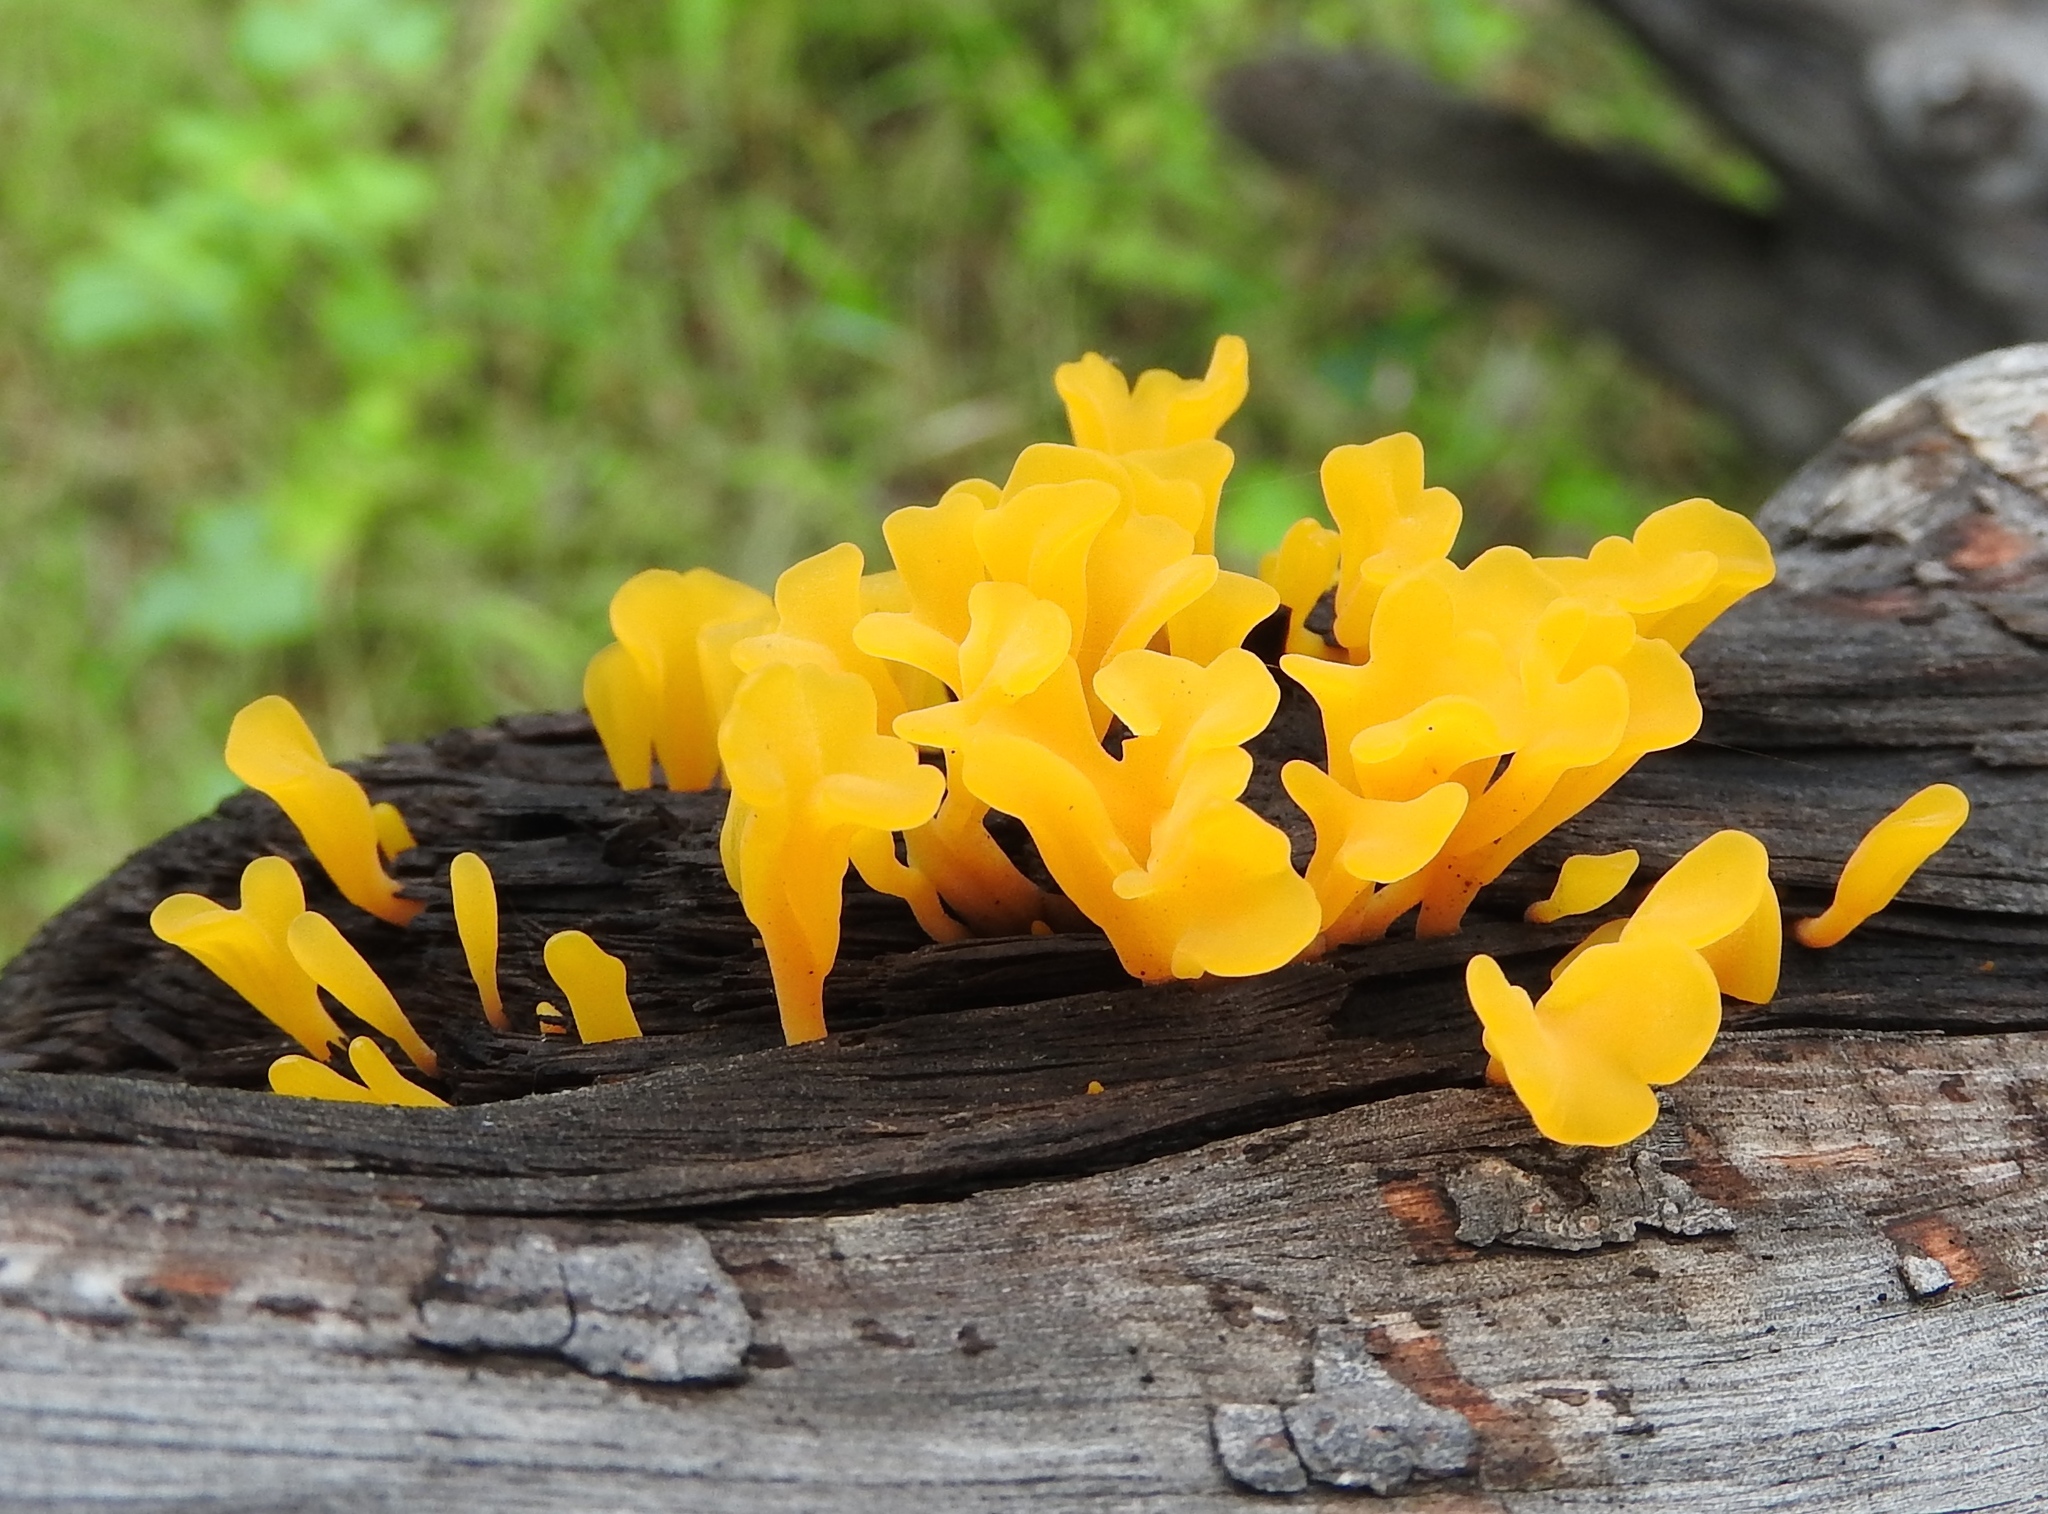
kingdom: Fungi
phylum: Basidiomycota
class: Dacrymycetes
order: Dacrymycetales
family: Dacrymycetaceae
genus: Dacrymyces
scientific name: Dacrymyces spathularius
